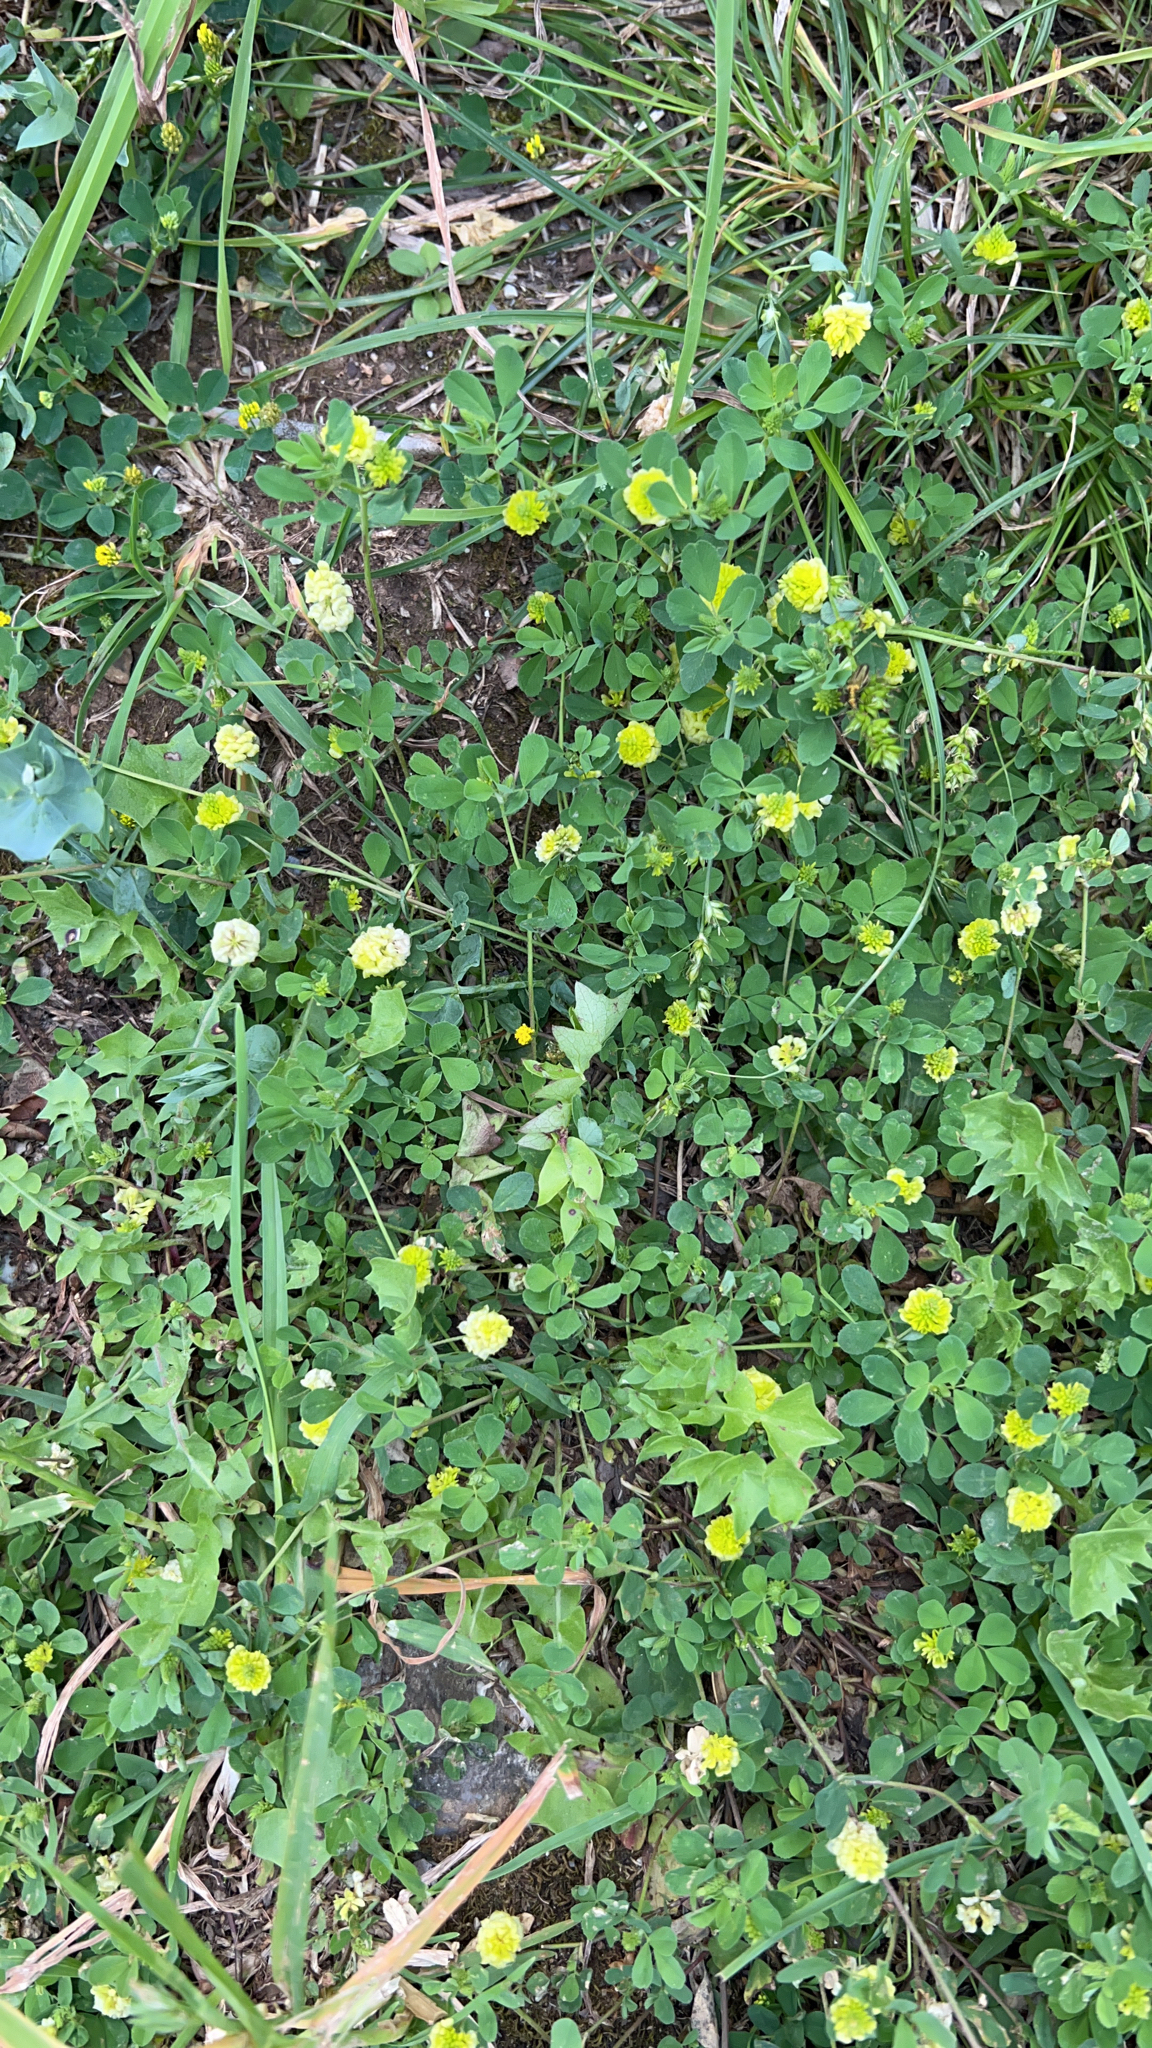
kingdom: Plantae
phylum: Tracheophyta
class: Magnoliopsida
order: Fabales
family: Fabaceae
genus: Trifolium
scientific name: Trifolium campestre
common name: Field clover
